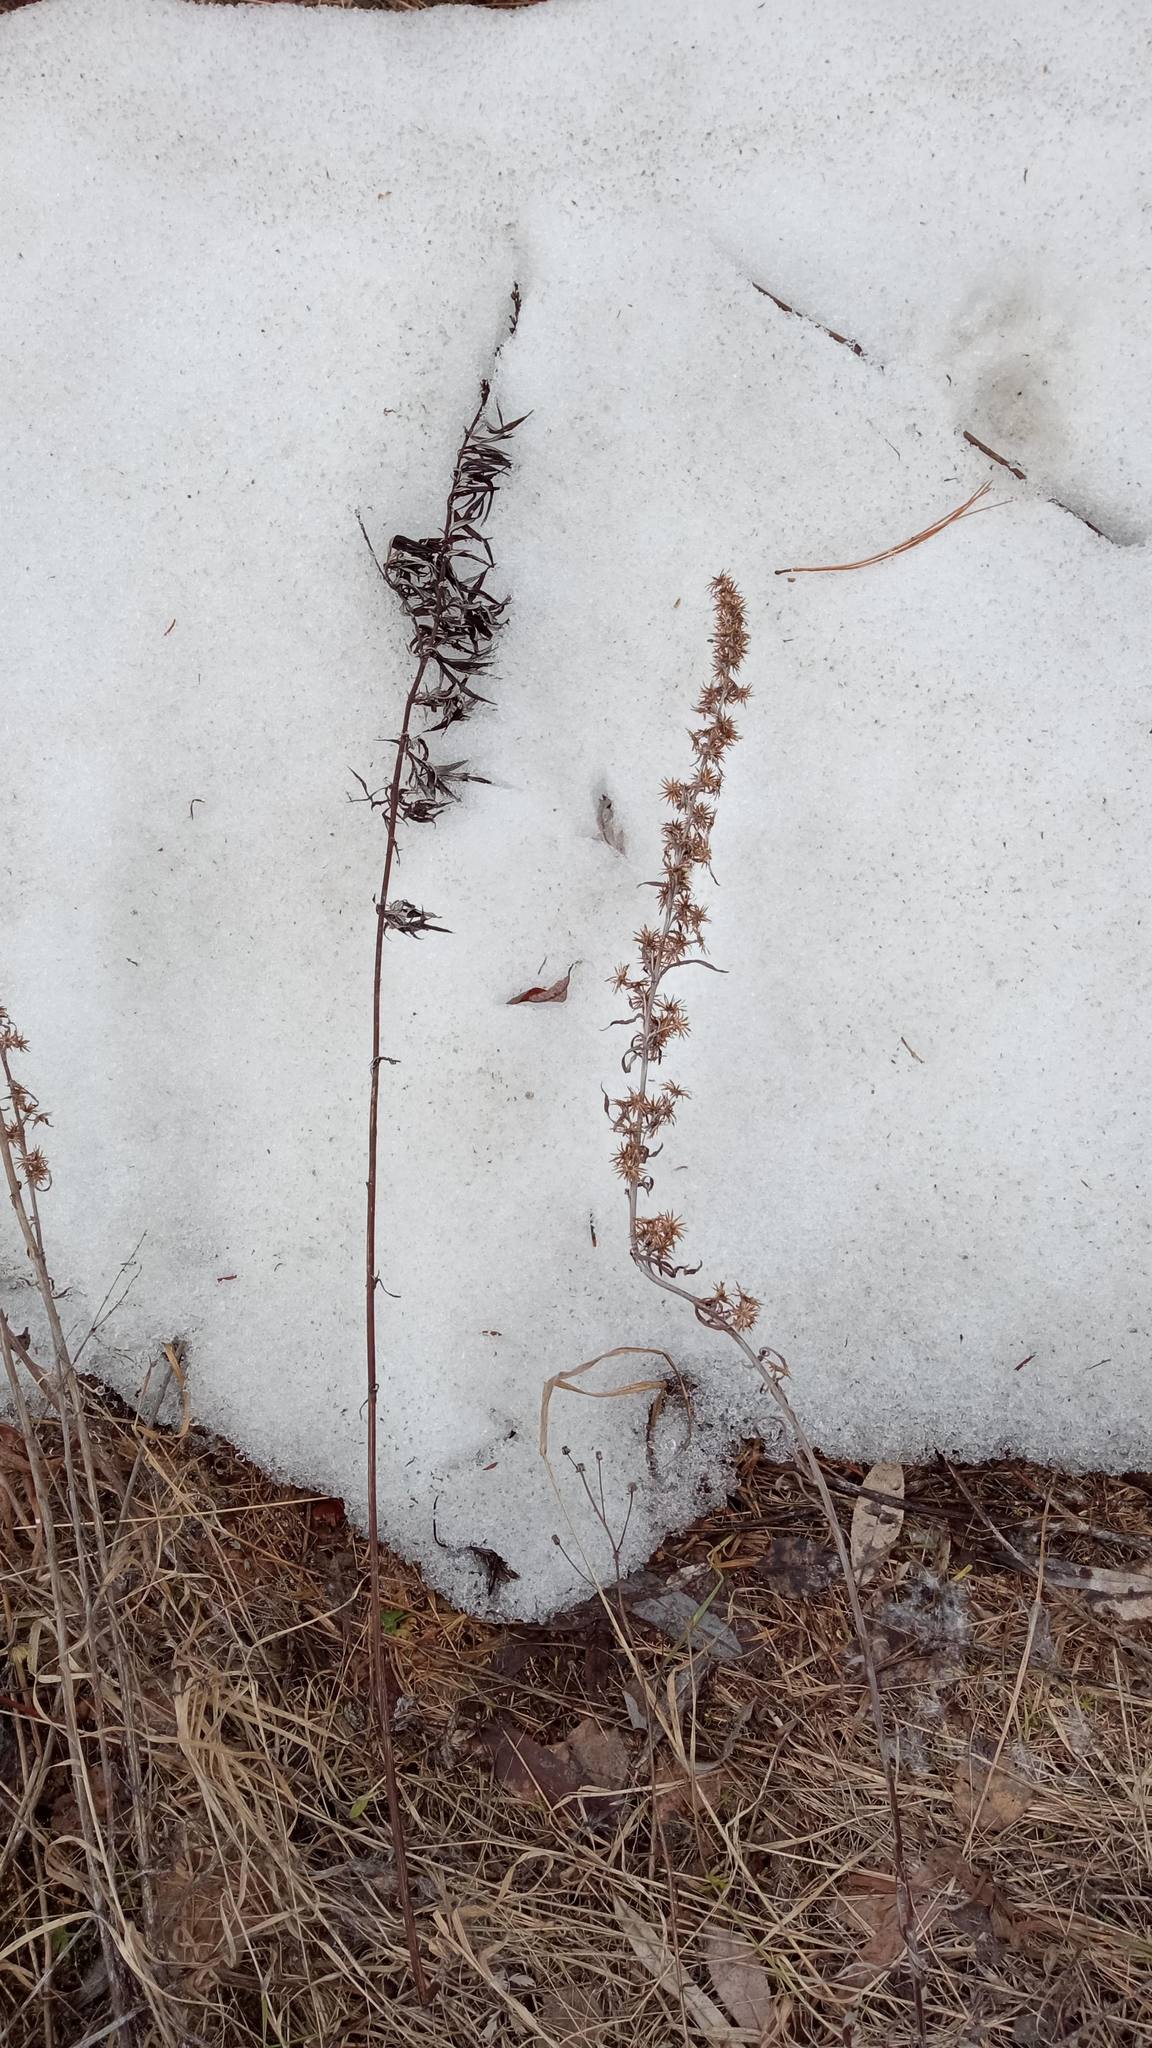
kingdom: Plantae
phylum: Tracheophyta
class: Magnoliopsida
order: Asterales
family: Asteraceae
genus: Artemisia
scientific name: Artemisia vulgaris
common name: Mugwort
